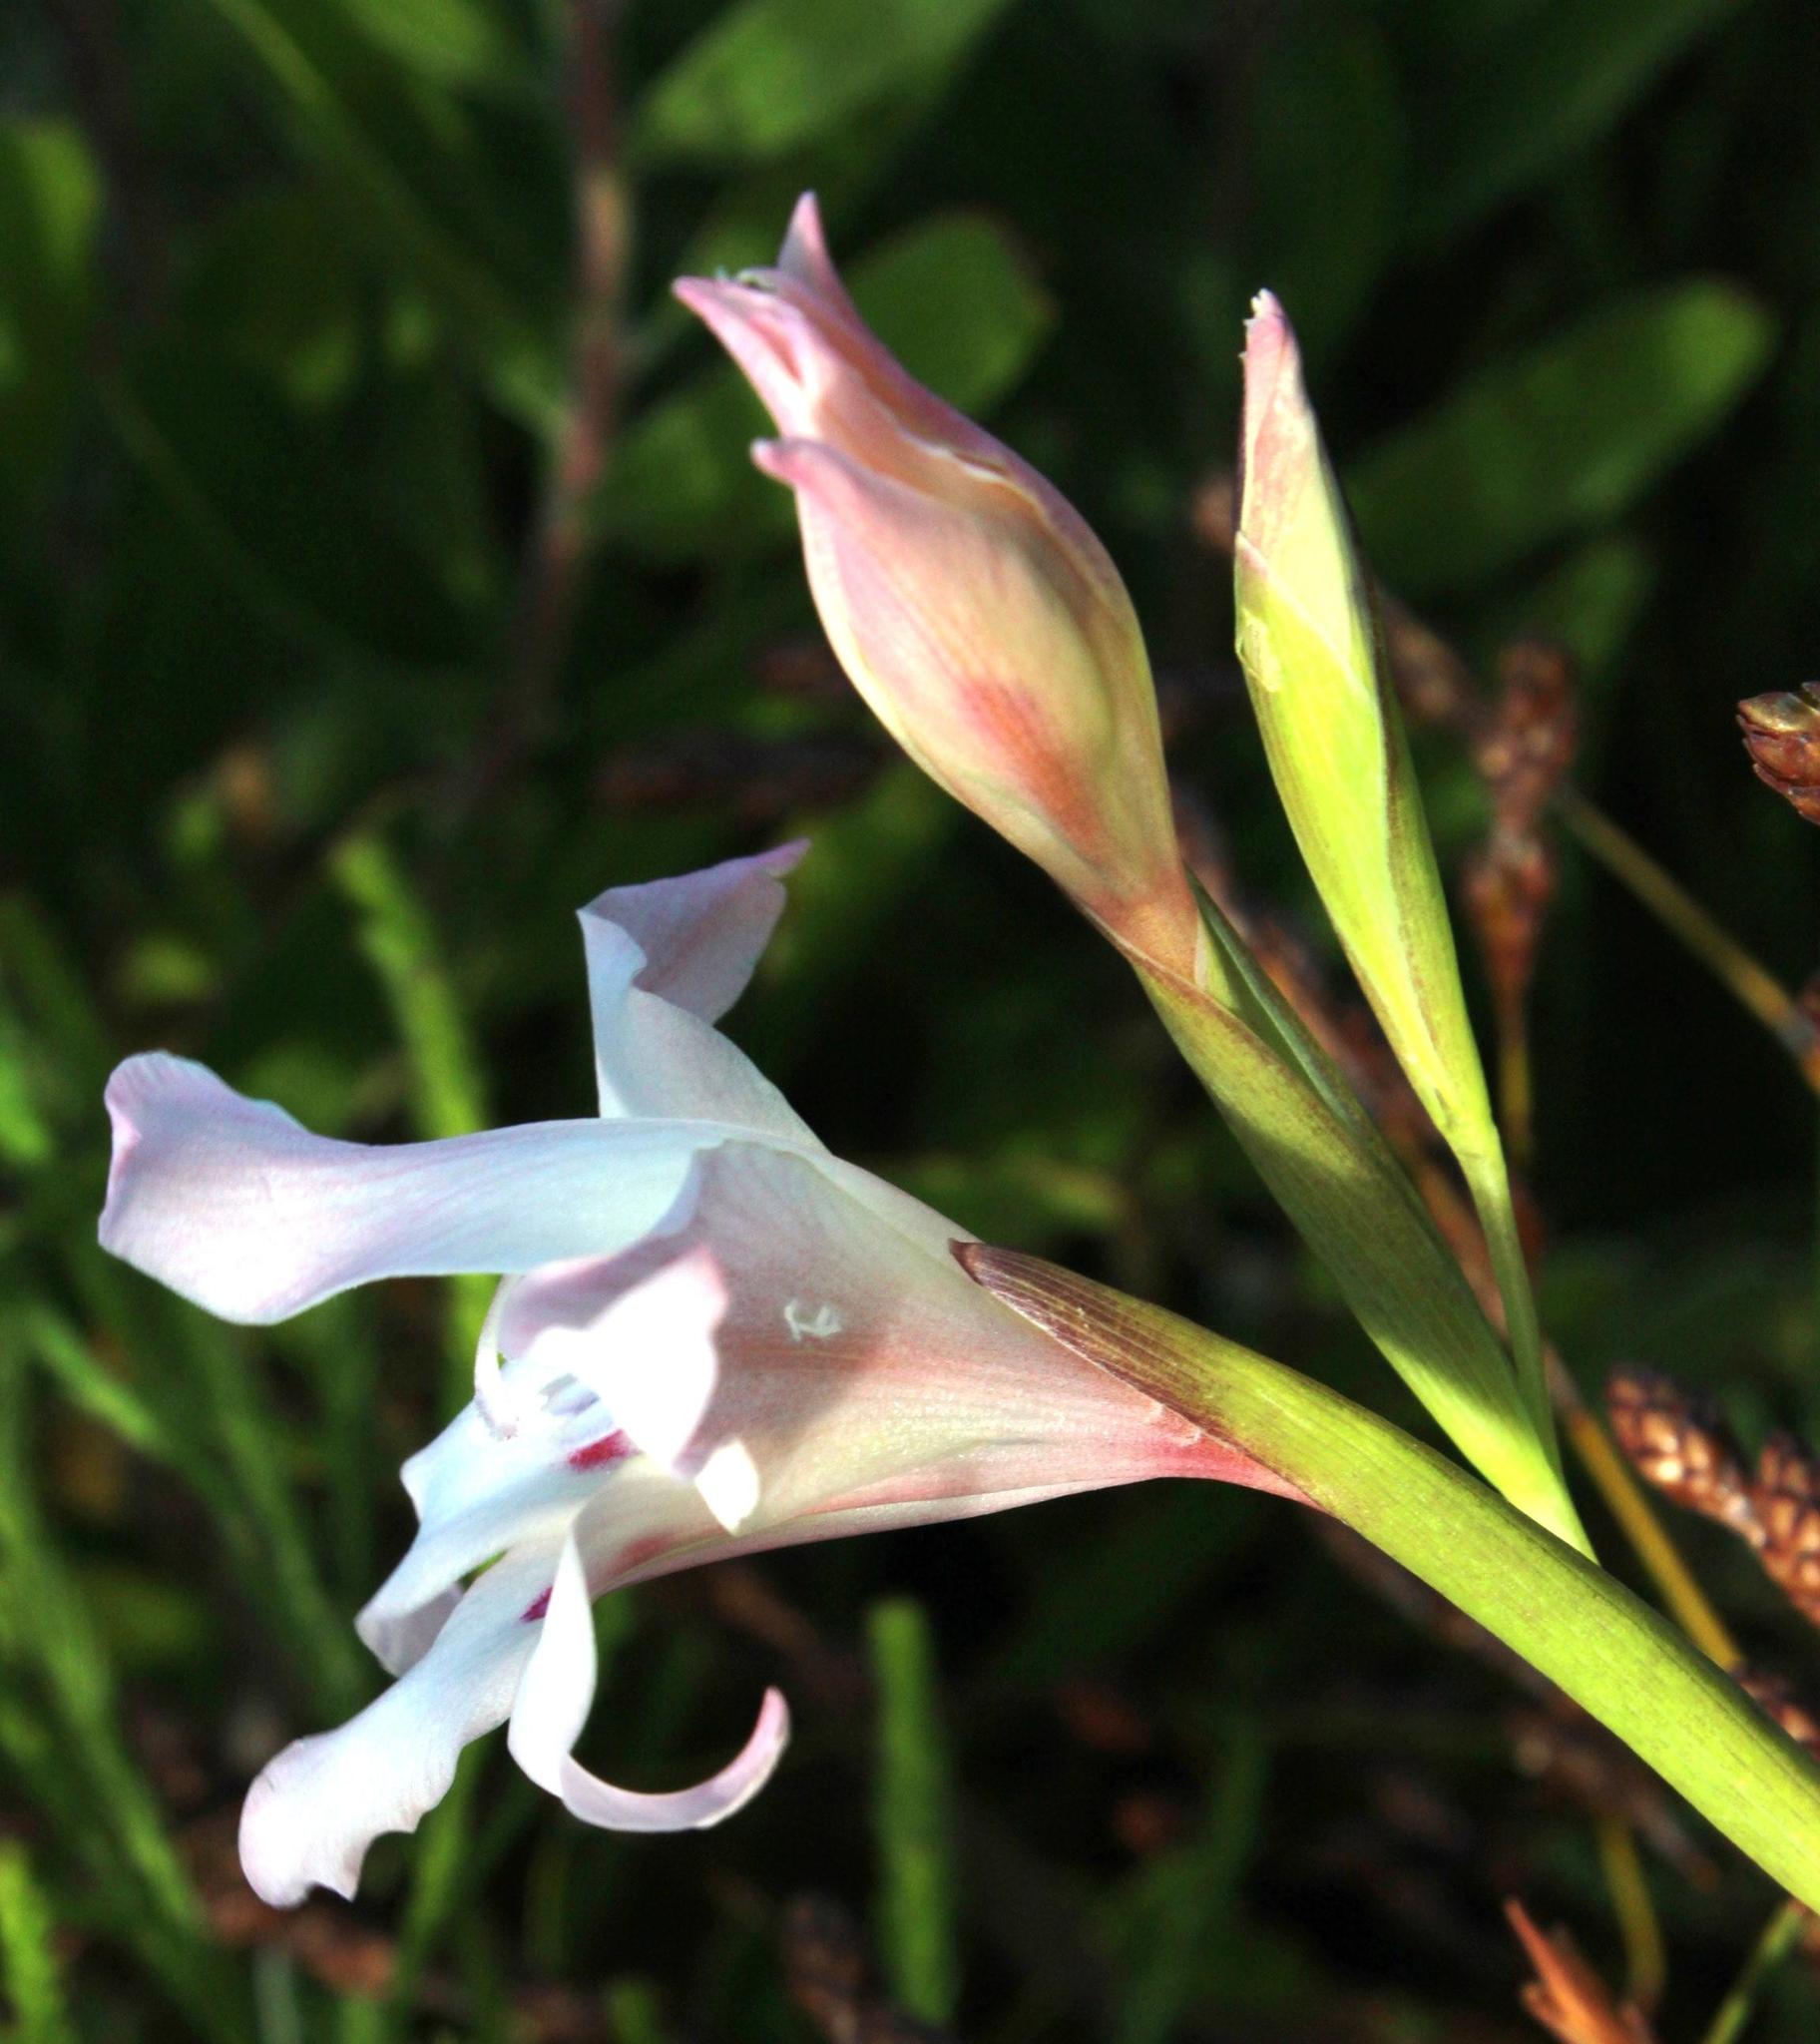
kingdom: Plantae
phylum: Tracheophyta
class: Liliopsida
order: Asparagales
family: Iridaceae
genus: Gladiolus
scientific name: Gladiolus carneus
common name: Painted-lady
